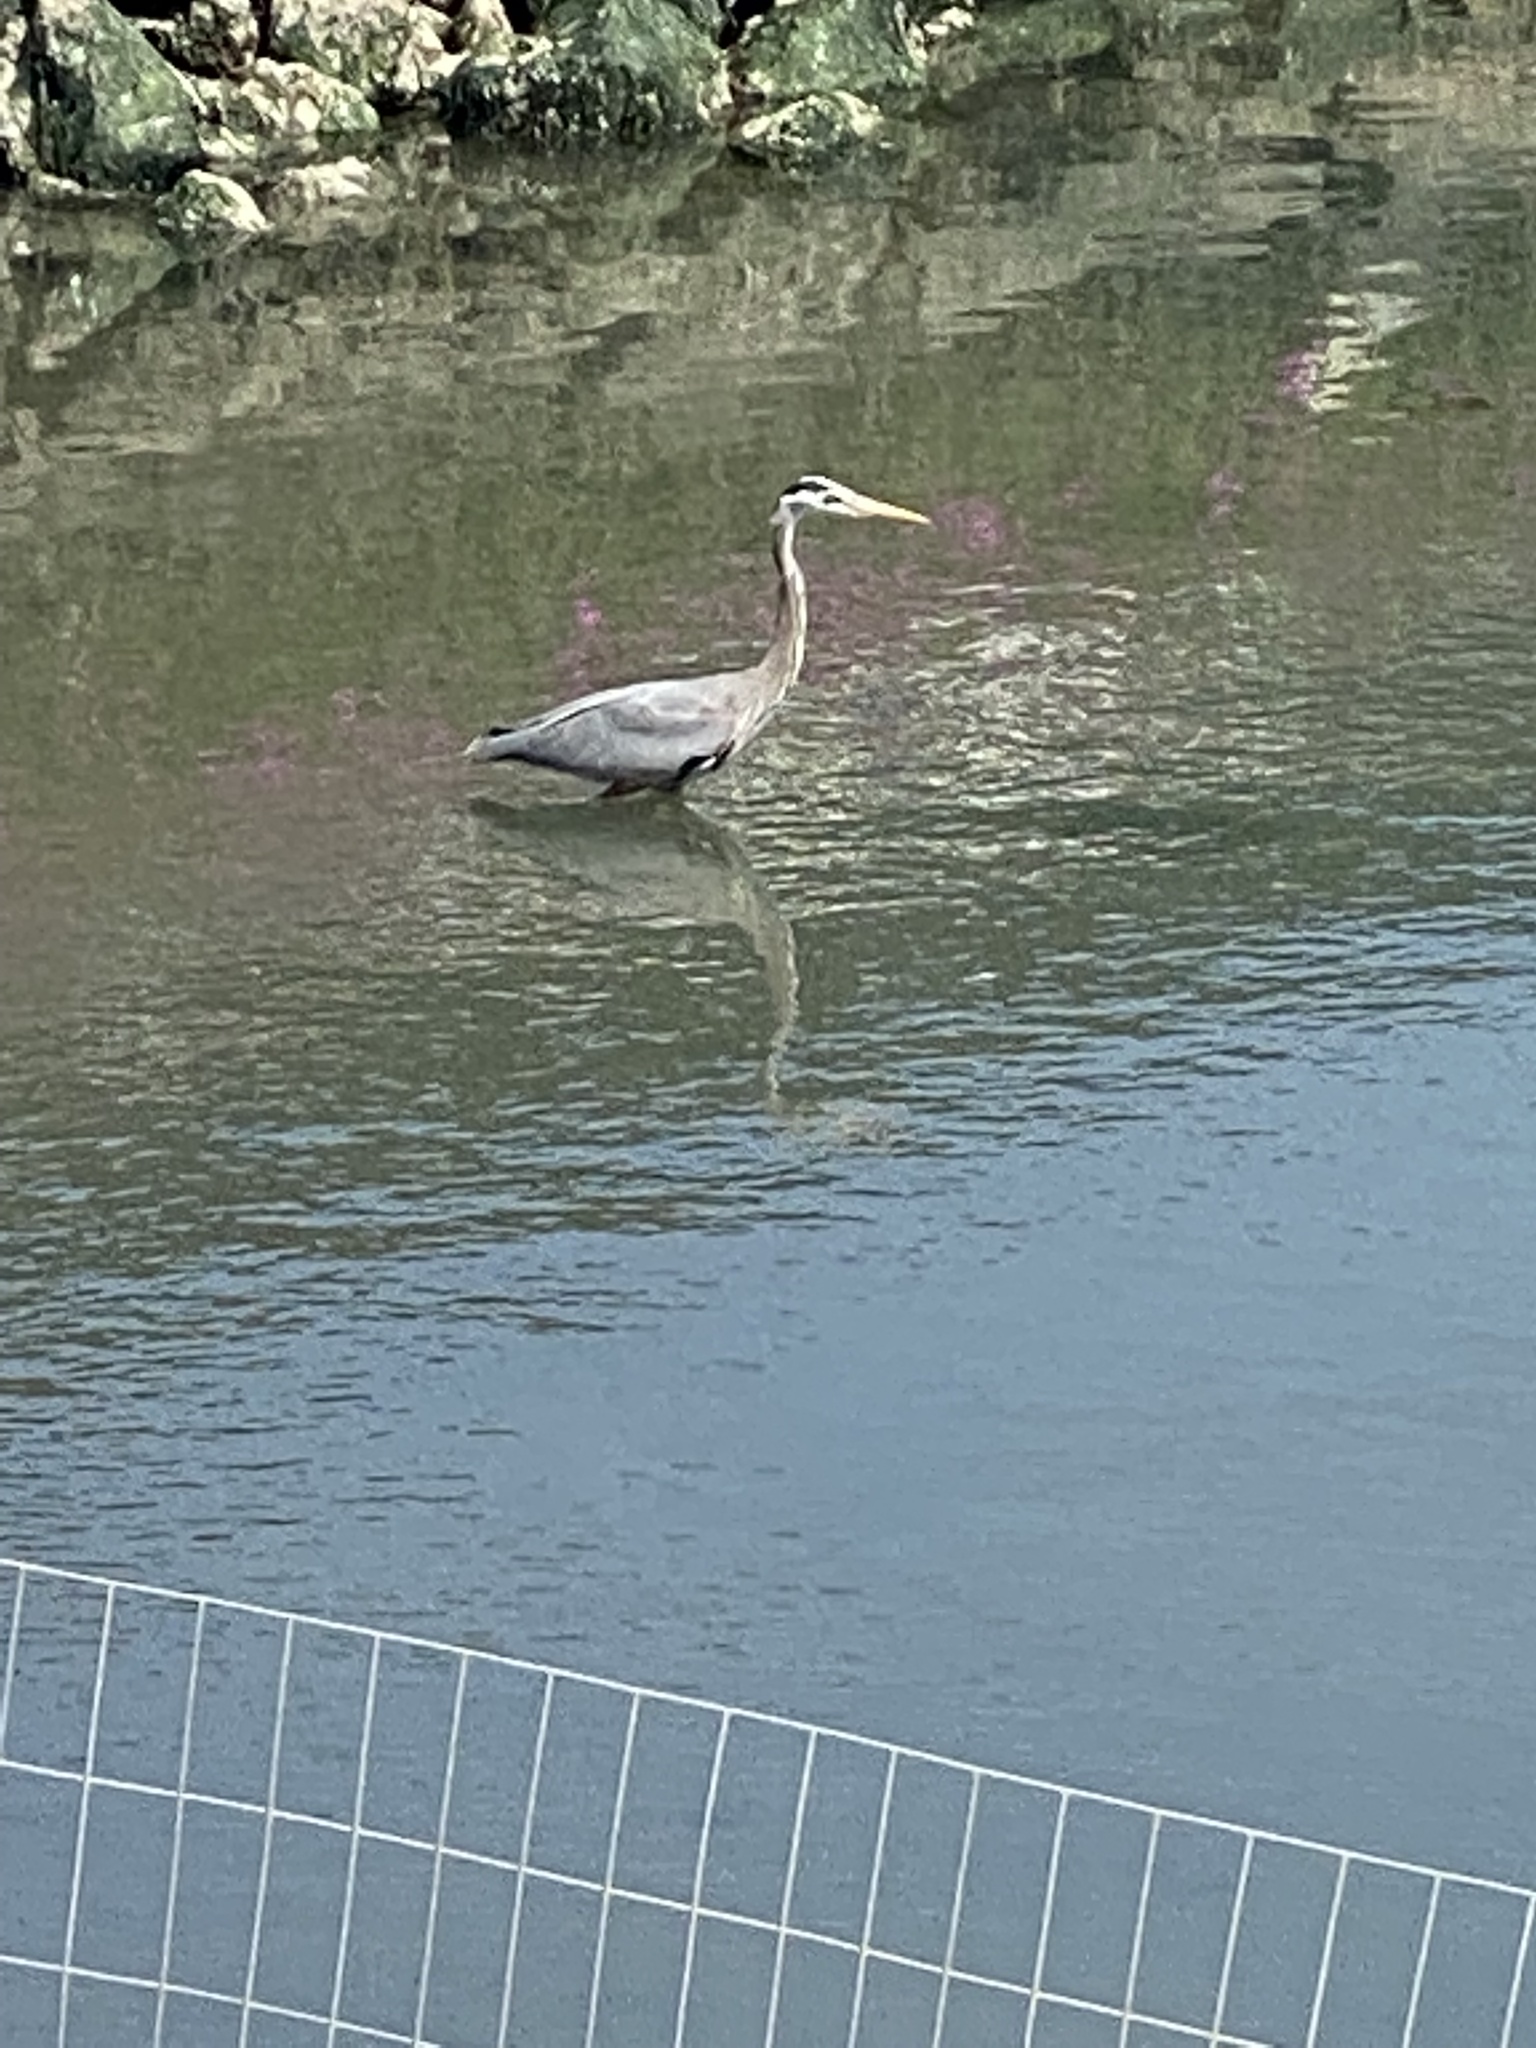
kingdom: Animalia
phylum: Chordata
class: Aves
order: Pelecaniformes
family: Ardeidae
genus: Ardea
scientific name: Ardea herodias
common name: Great blue heron
